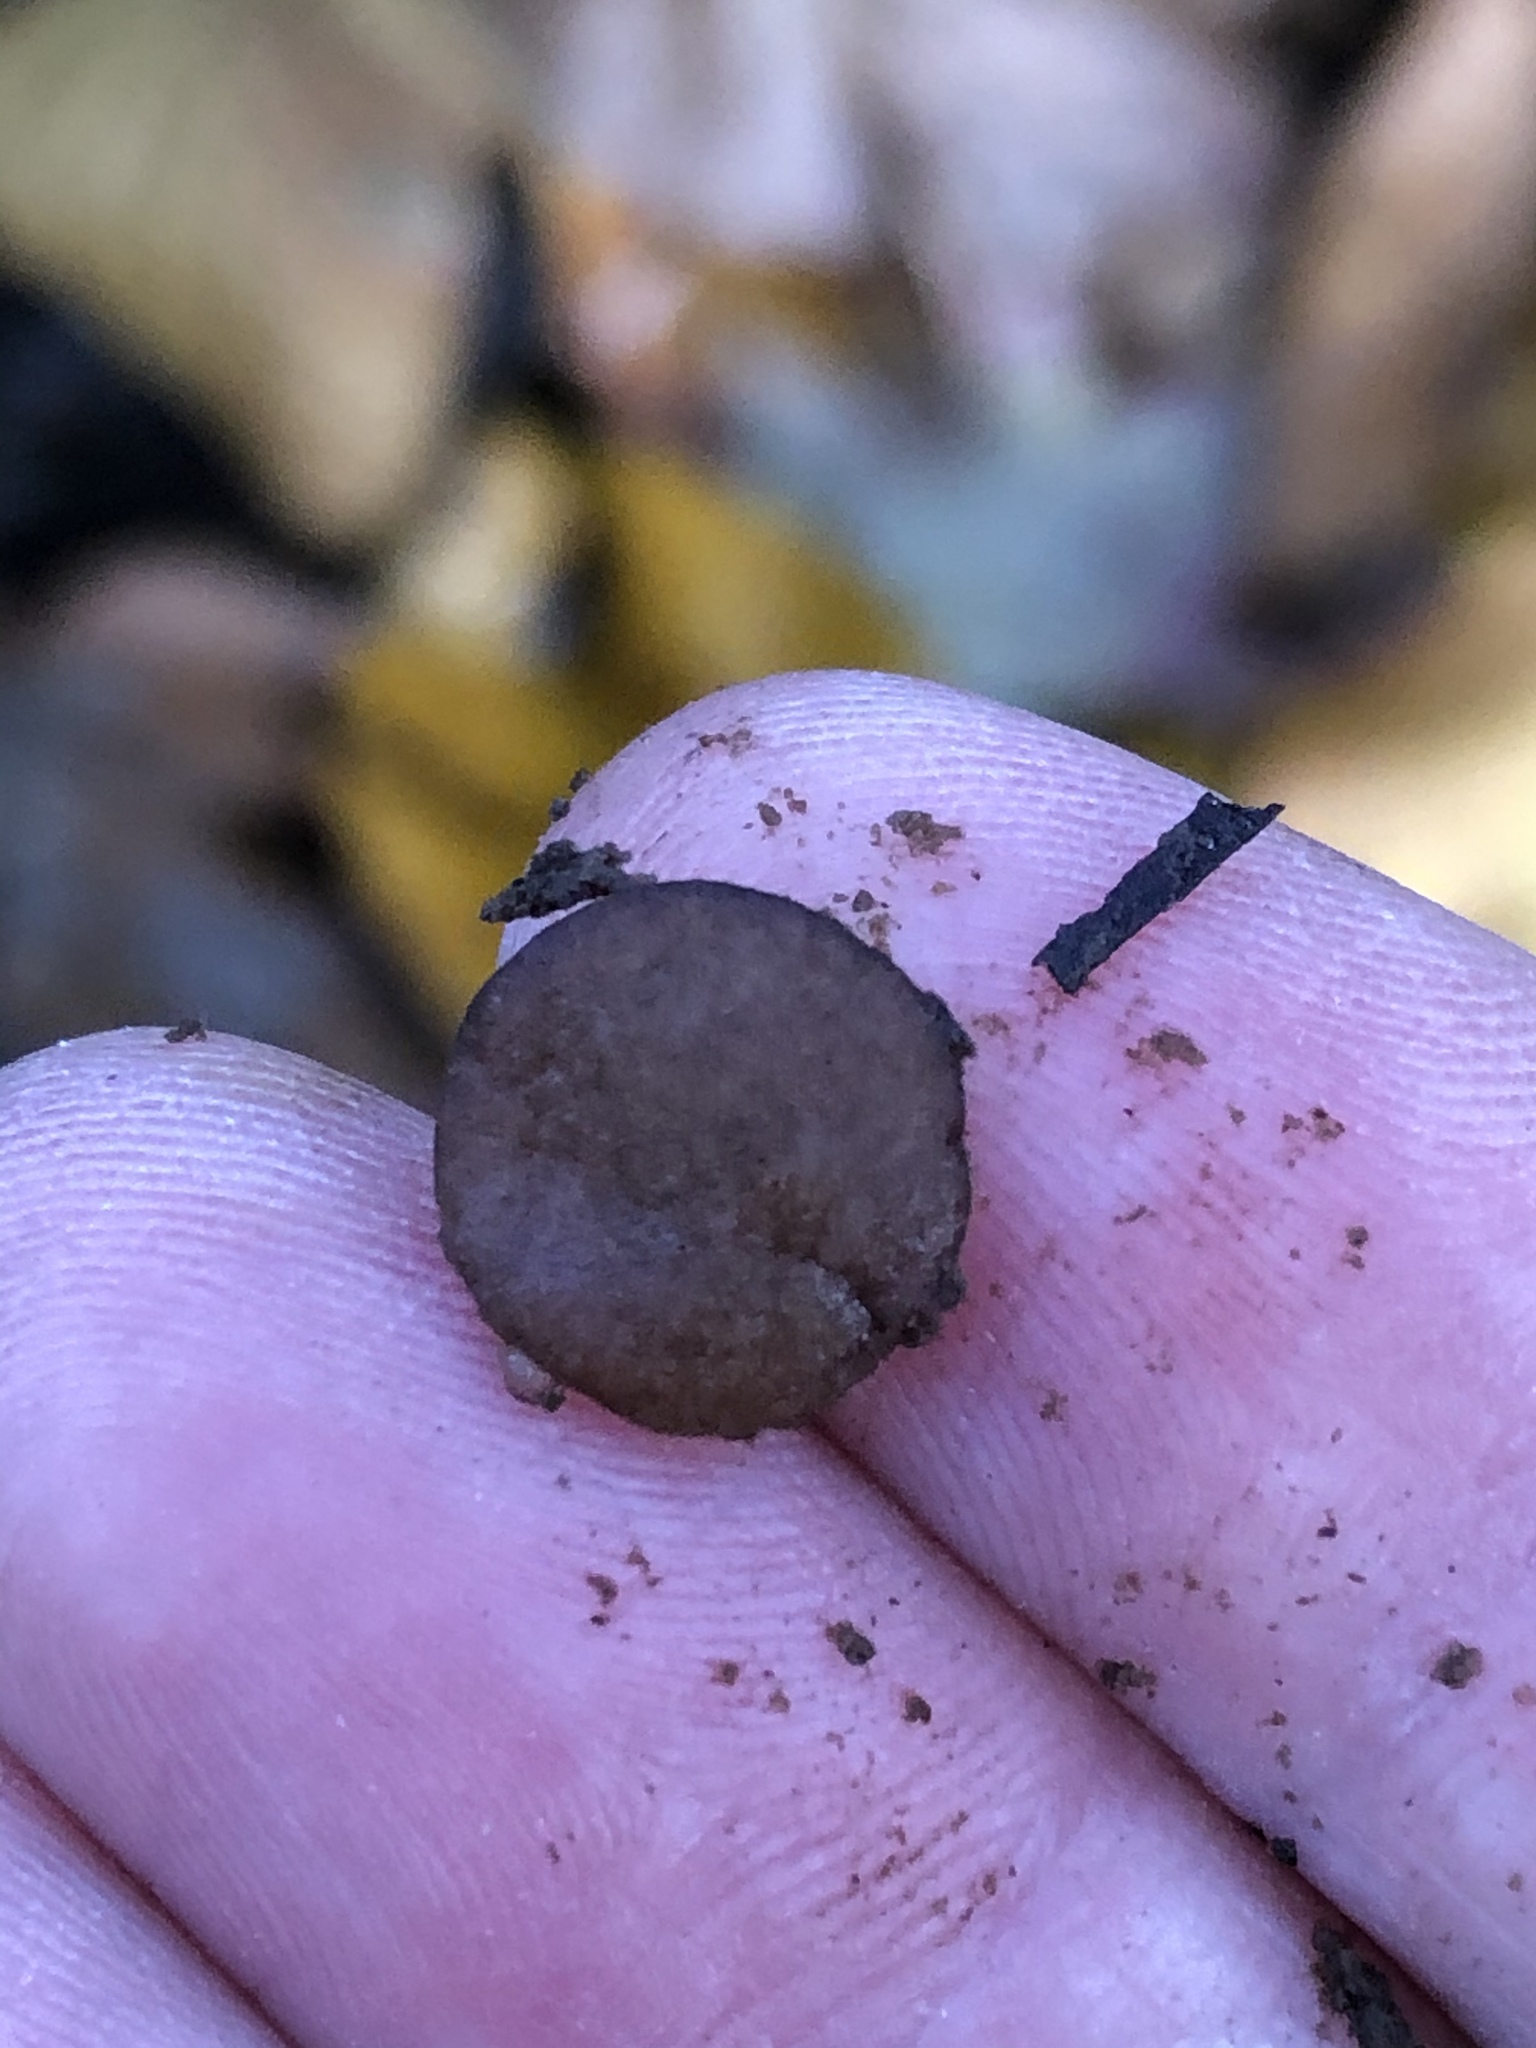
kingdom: Fungi
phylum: Ascomycota
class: Pezizomycetes
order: Pezizales
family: Pezizaceae
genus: Pachyella
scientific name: Pachyella clypeata
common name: Copper penny fungus
